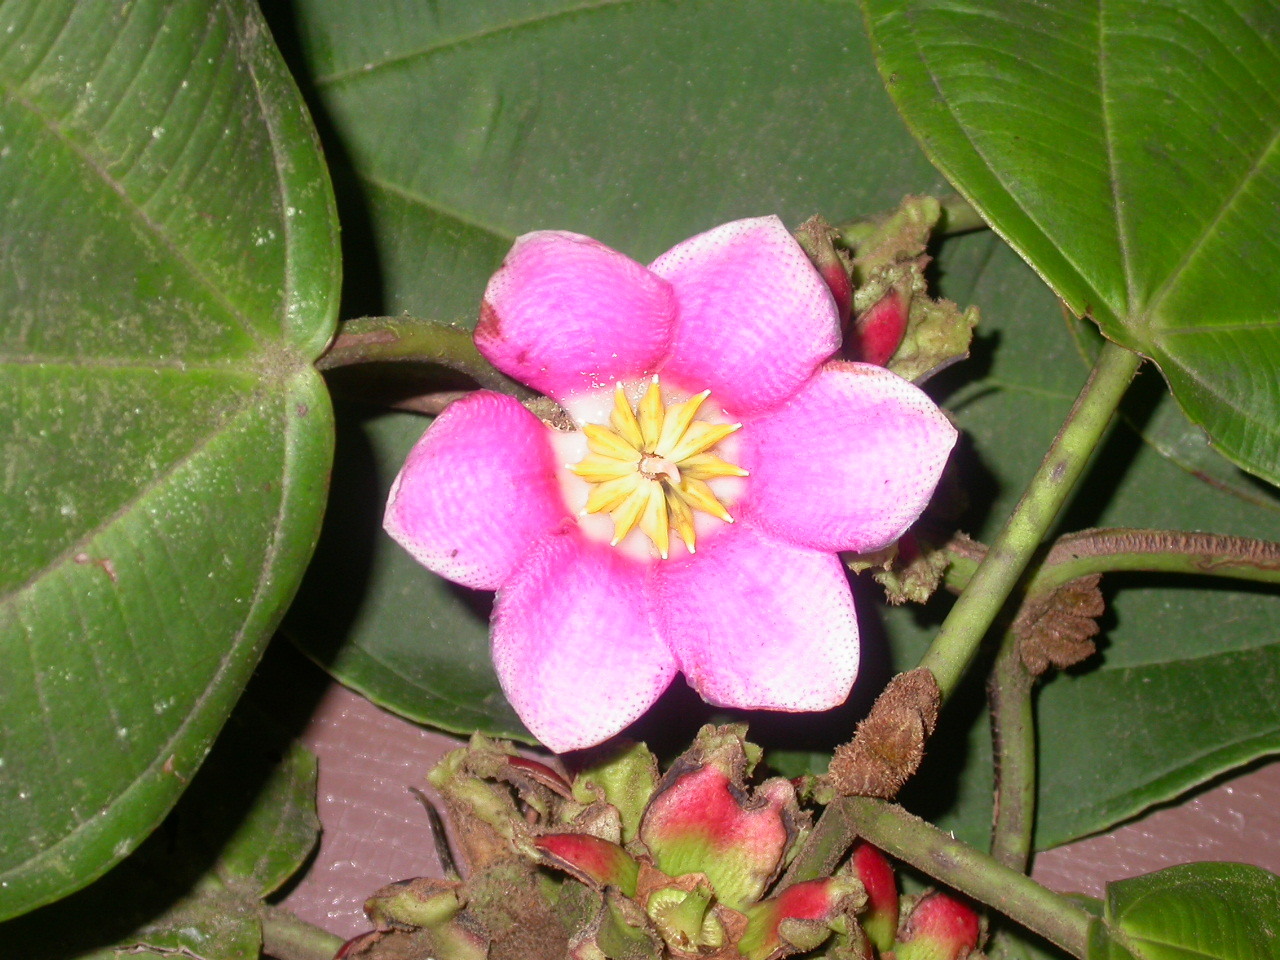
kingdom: Plantae
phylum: Tracheophyta
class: Magnoliopsida
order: Myrtales
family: Melastomataceae
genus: Blakea
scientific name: Blakea tuberculata
